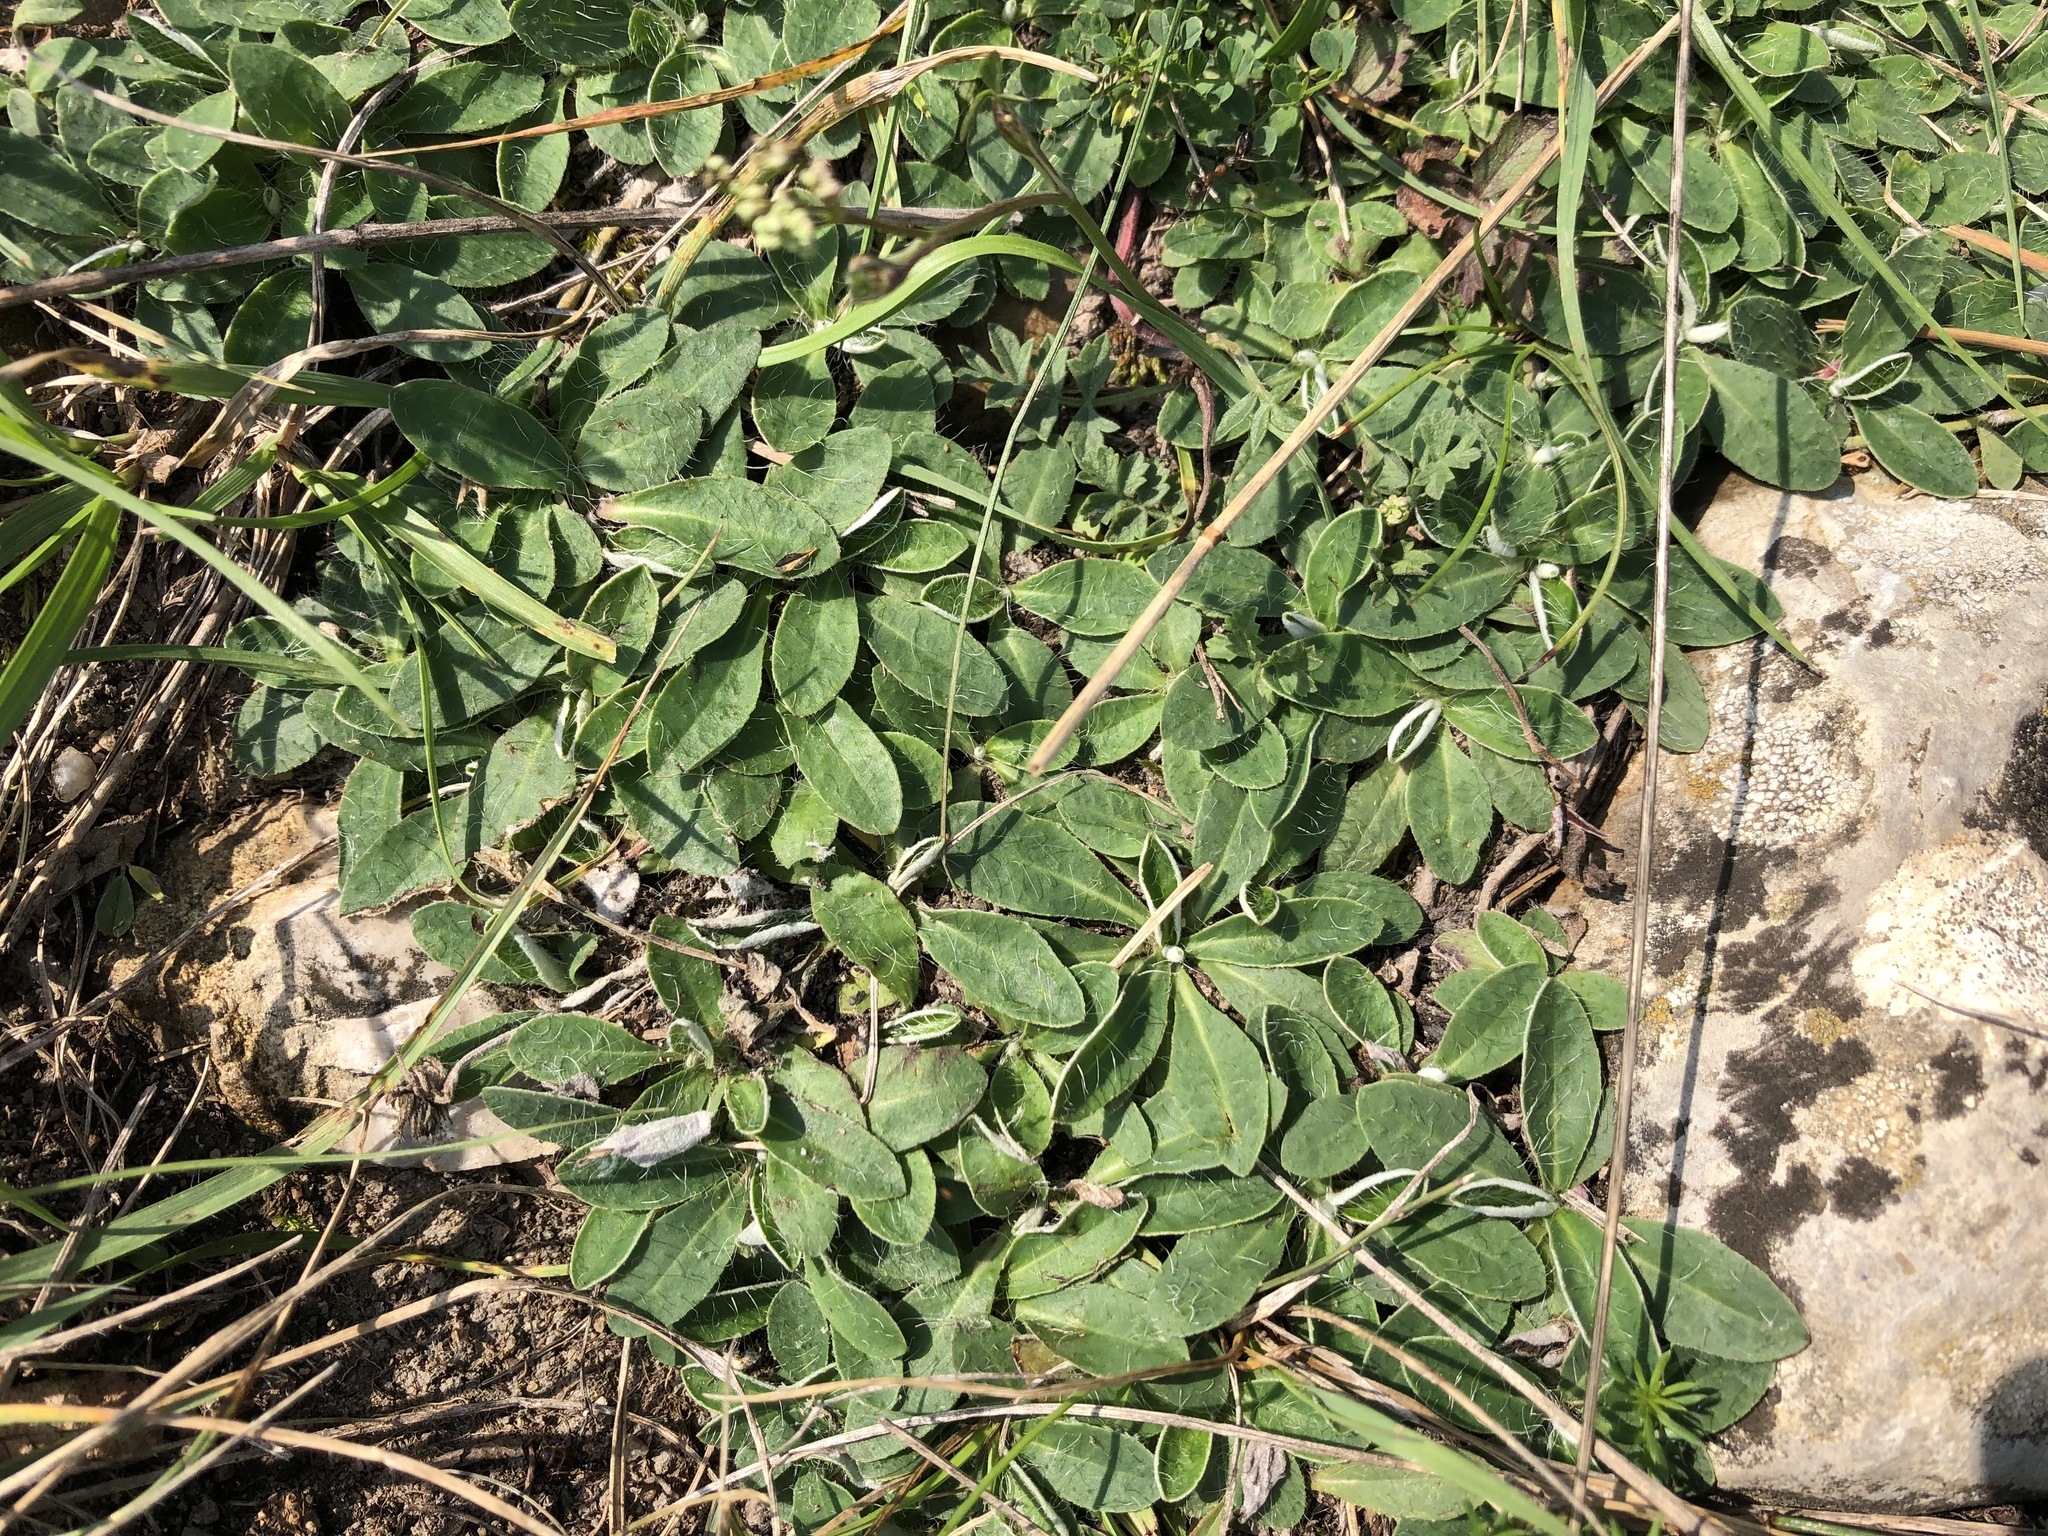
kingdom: Plantae
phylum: Tracheophyta
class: Magnoliopsida
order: Asterales
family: Asteraceae
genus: Pilosella
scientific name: Pilosella officinarum
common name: Mouse-ear hawkweed
